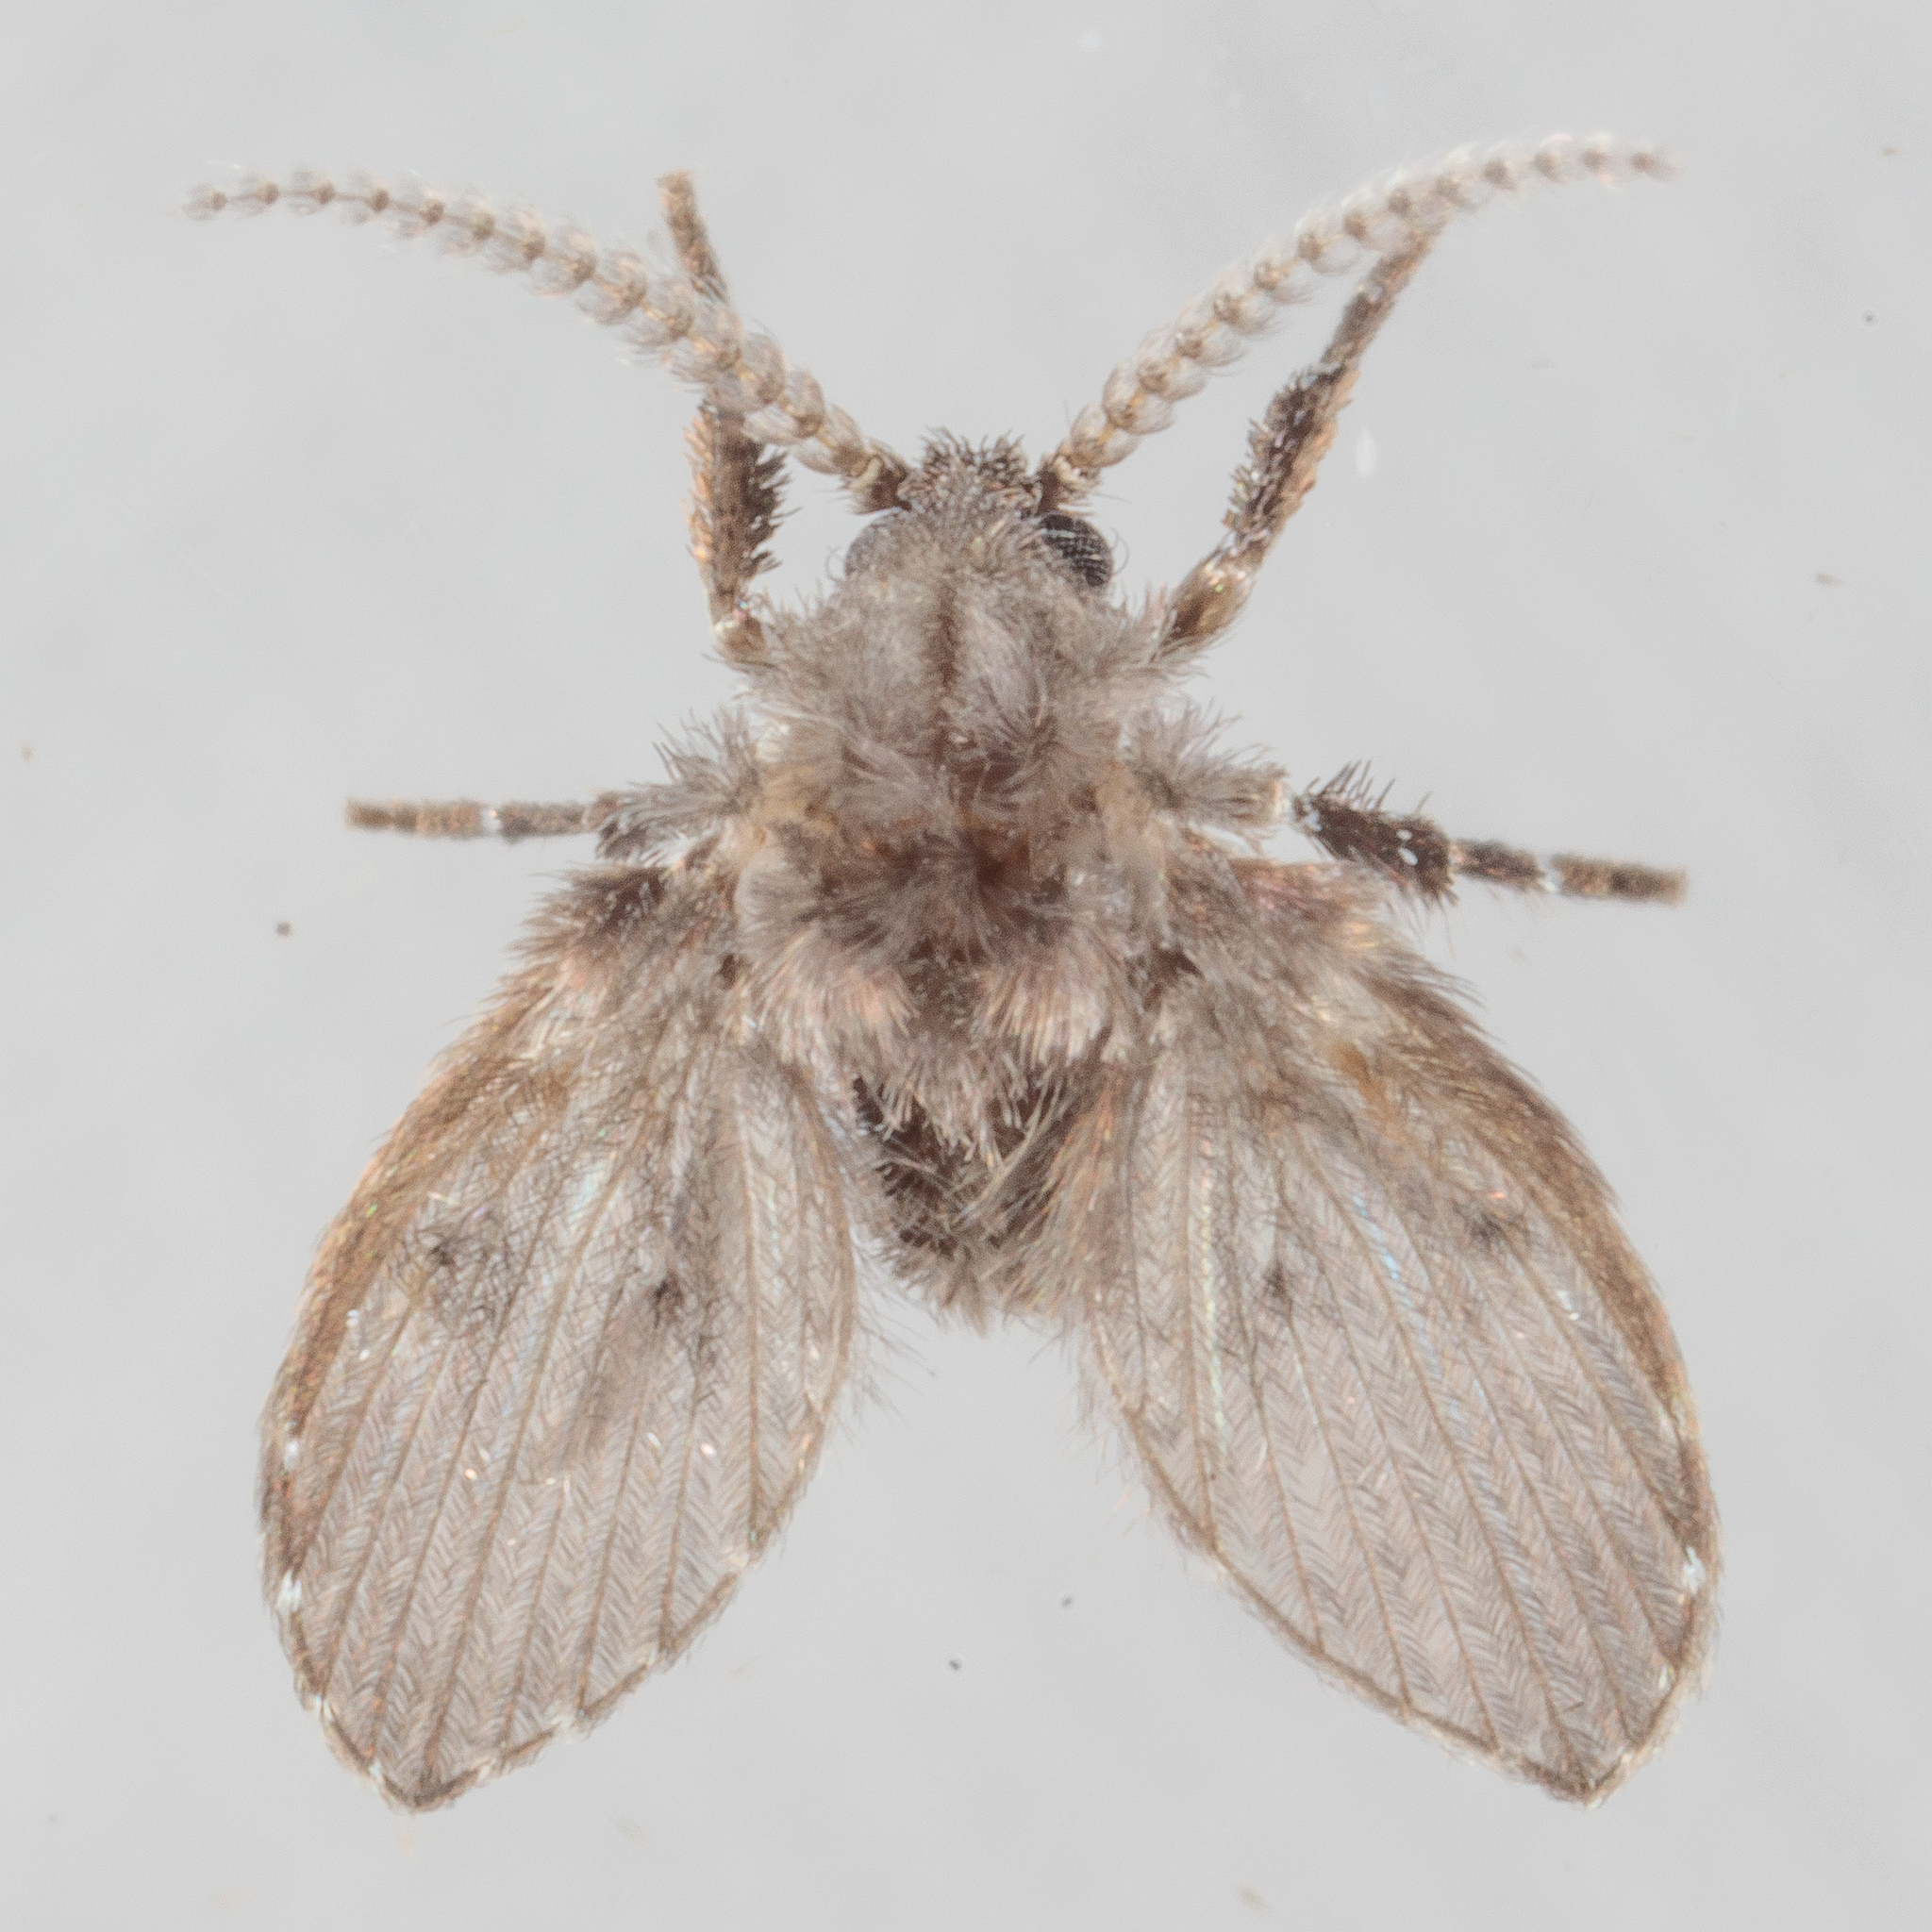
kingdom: Animalia
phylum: Arthropoda
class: Insecta
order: Diptera
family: Psychodidae
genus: Clogmia
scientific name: Clogmia albipunctatus
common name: White-spotted moth fly
